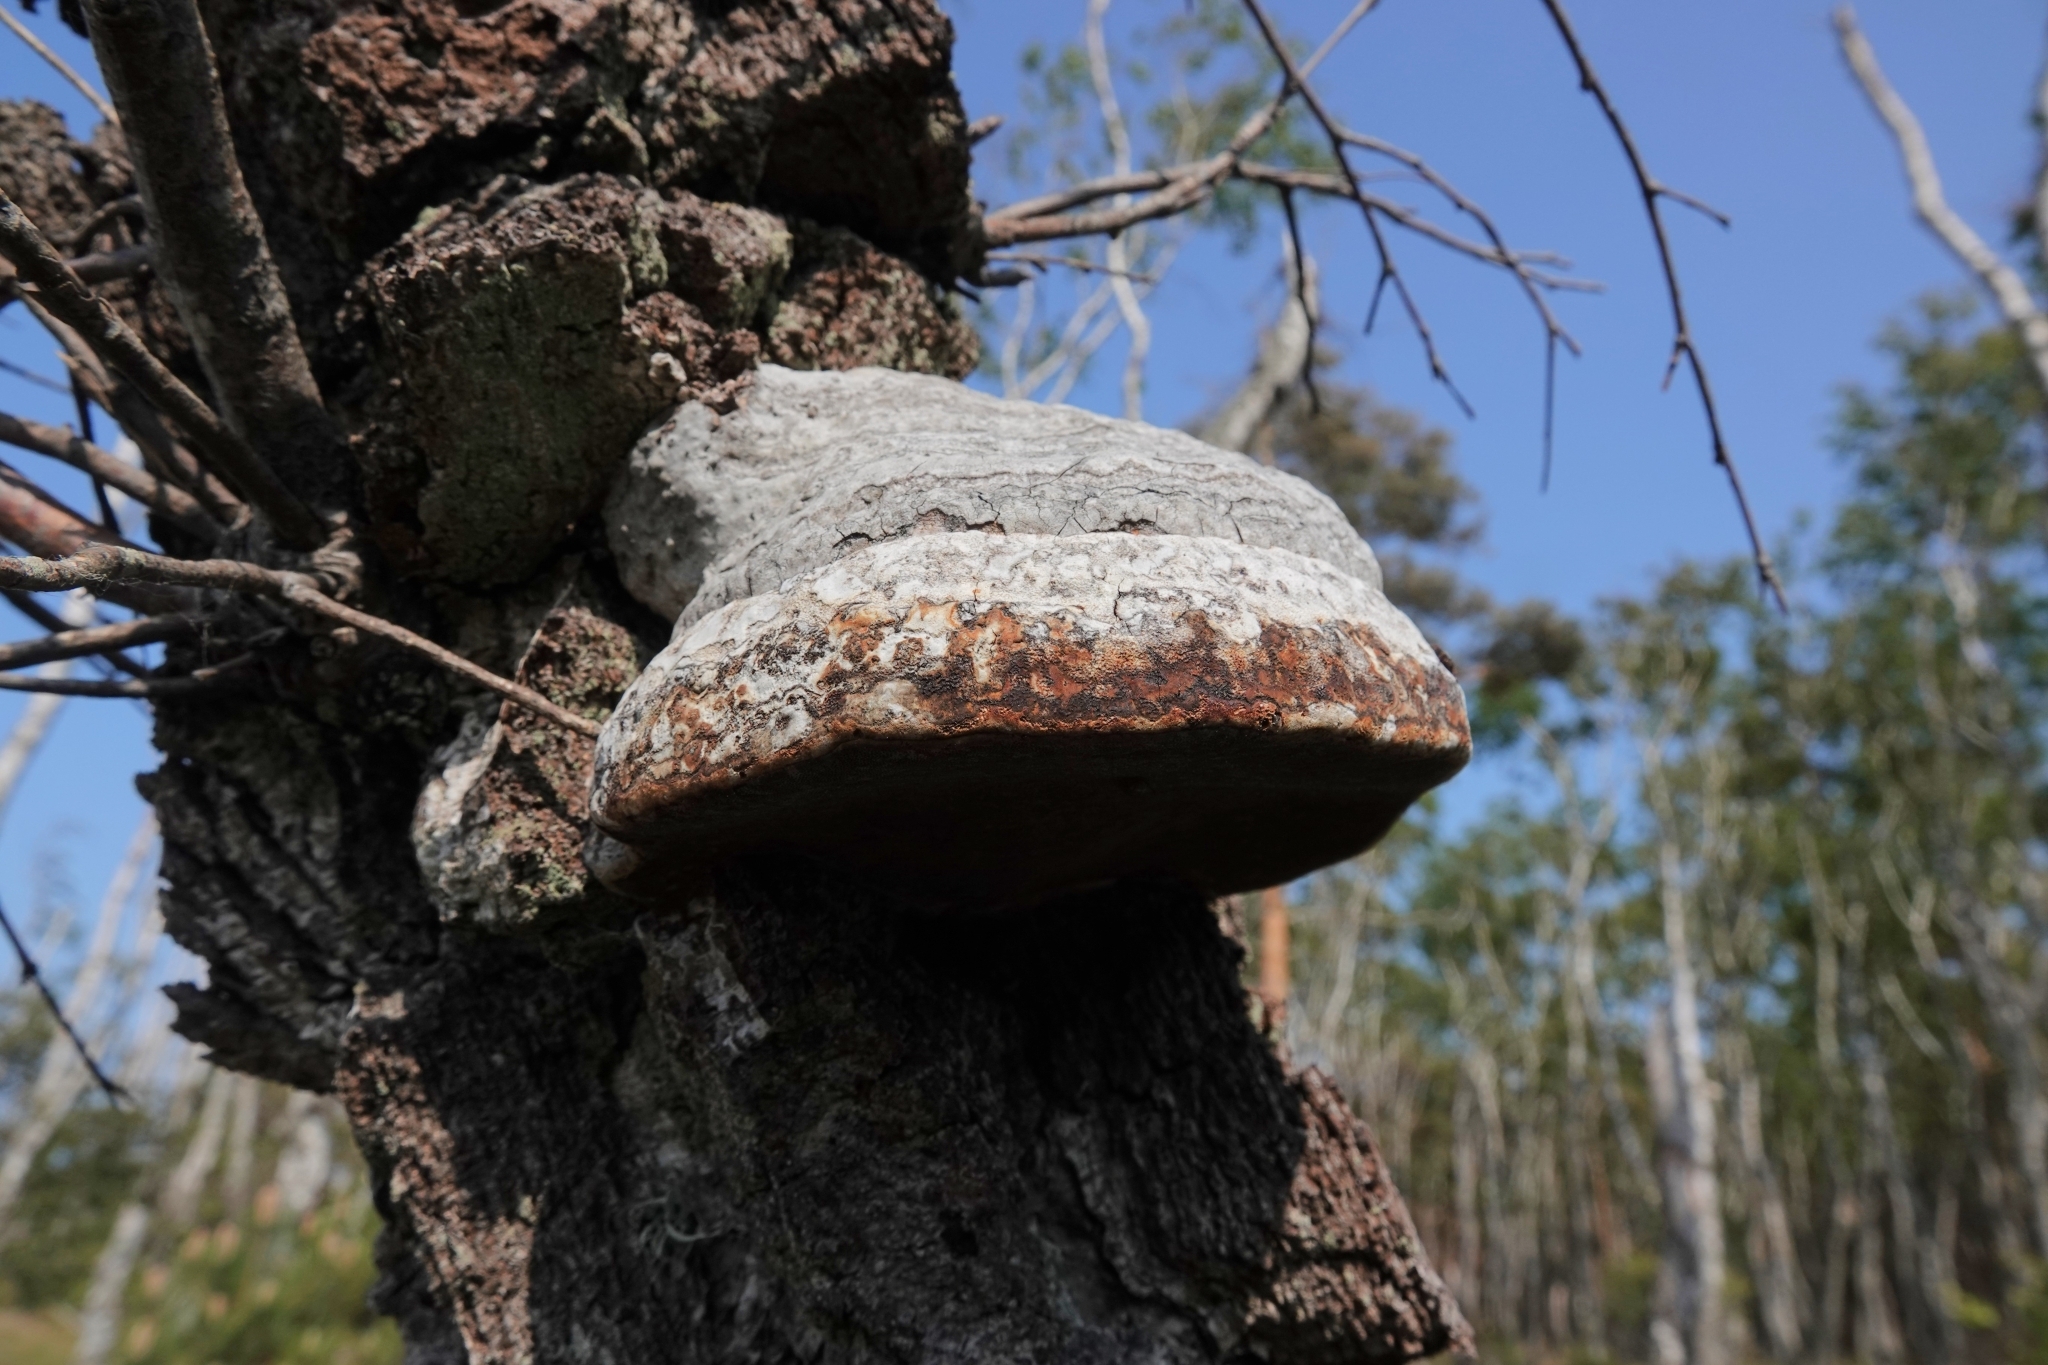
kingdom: Fungi
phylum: Basidiomycota
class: Agaricomycetes
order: Polyporales
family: Polyporaceae
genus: Fomes
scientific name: Fomes fomentarius
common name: Hoof fungus
